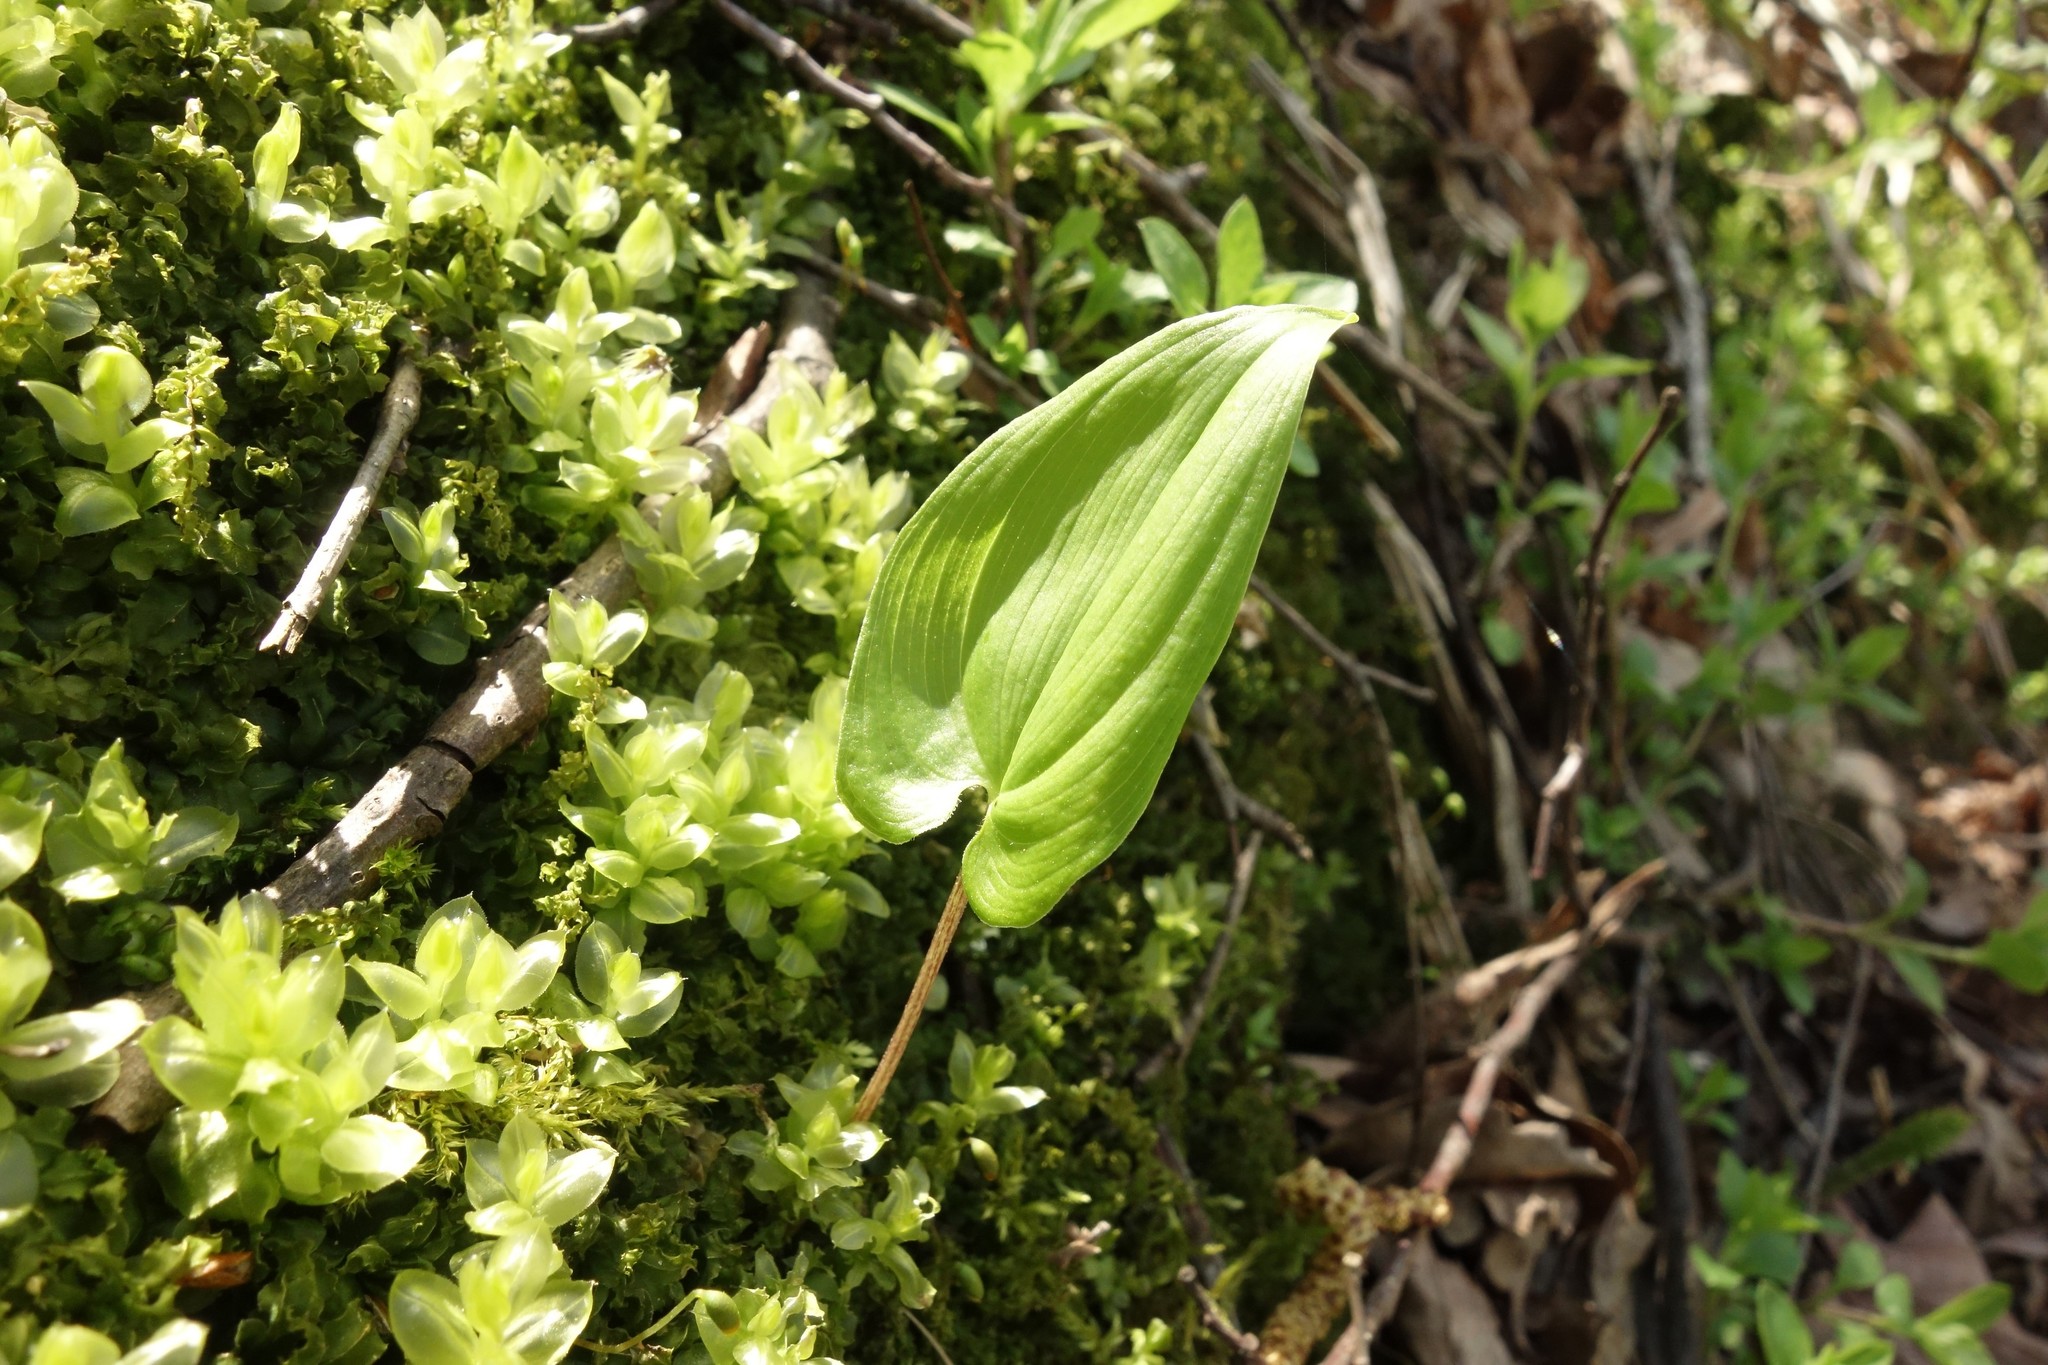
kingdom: Plantae
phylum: Tracheophyta
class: Liliopsida
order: Asparagales
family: Asparagaceae
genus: Maianthemum
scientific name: Maianthemum bifolium
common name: May lily
